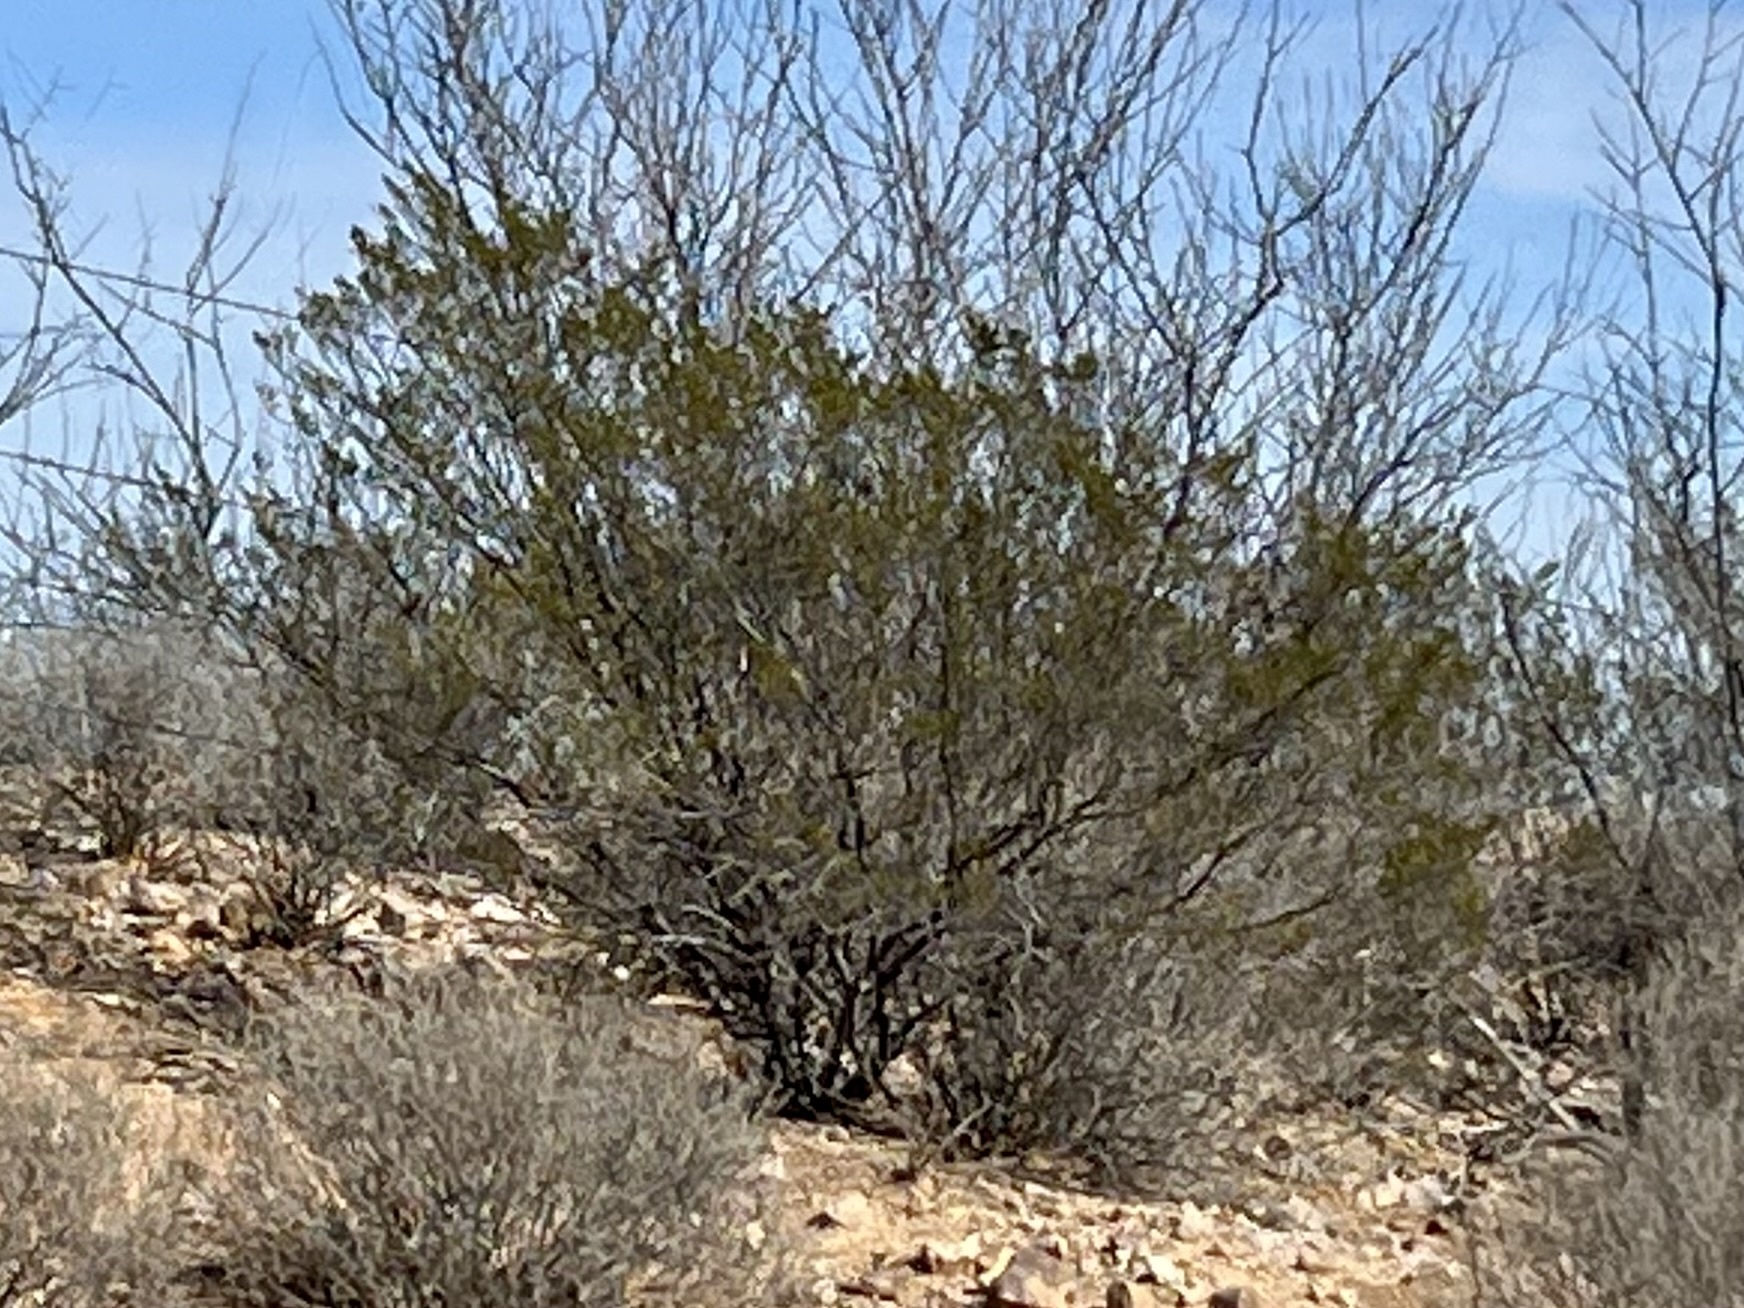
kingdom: Plantae
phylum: Tracheophyta
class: Magnoliopsida
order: Zygophyllales
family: Zygophyllaceae
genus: Larrea
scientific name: Larrea tridentata
